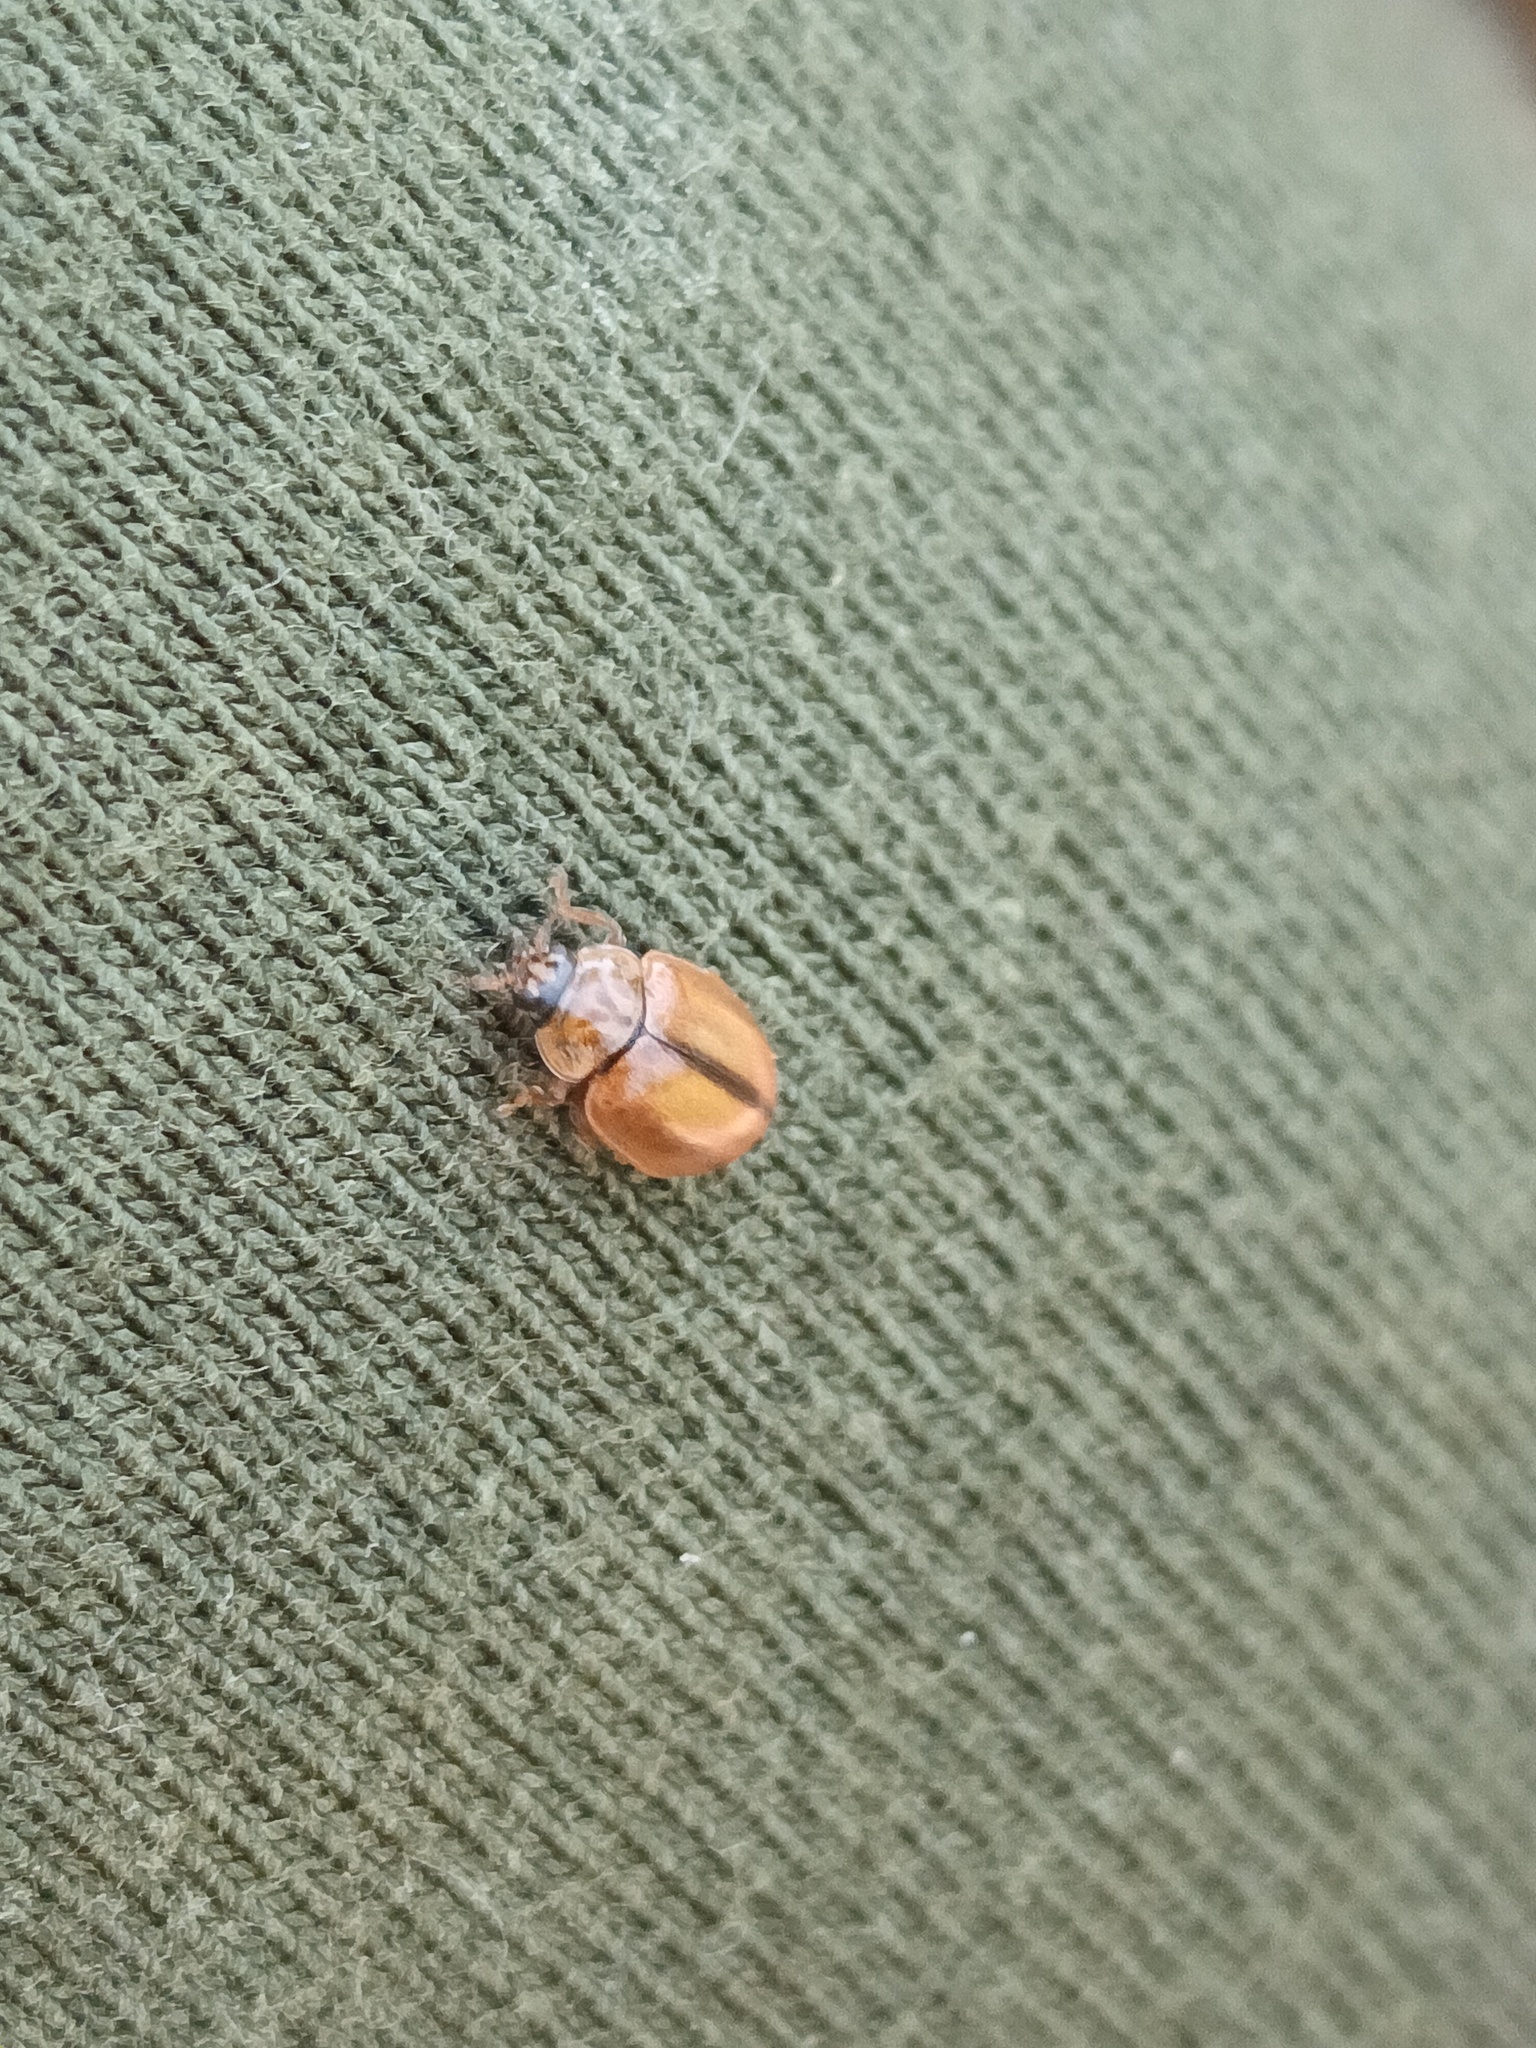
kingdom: Animalia
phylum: Arthropoda
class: Insecta
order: Coleoptera
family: Coccinellidae
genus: Aphidecta
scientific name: Aphidecta obliterata
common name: Larch ladybird
